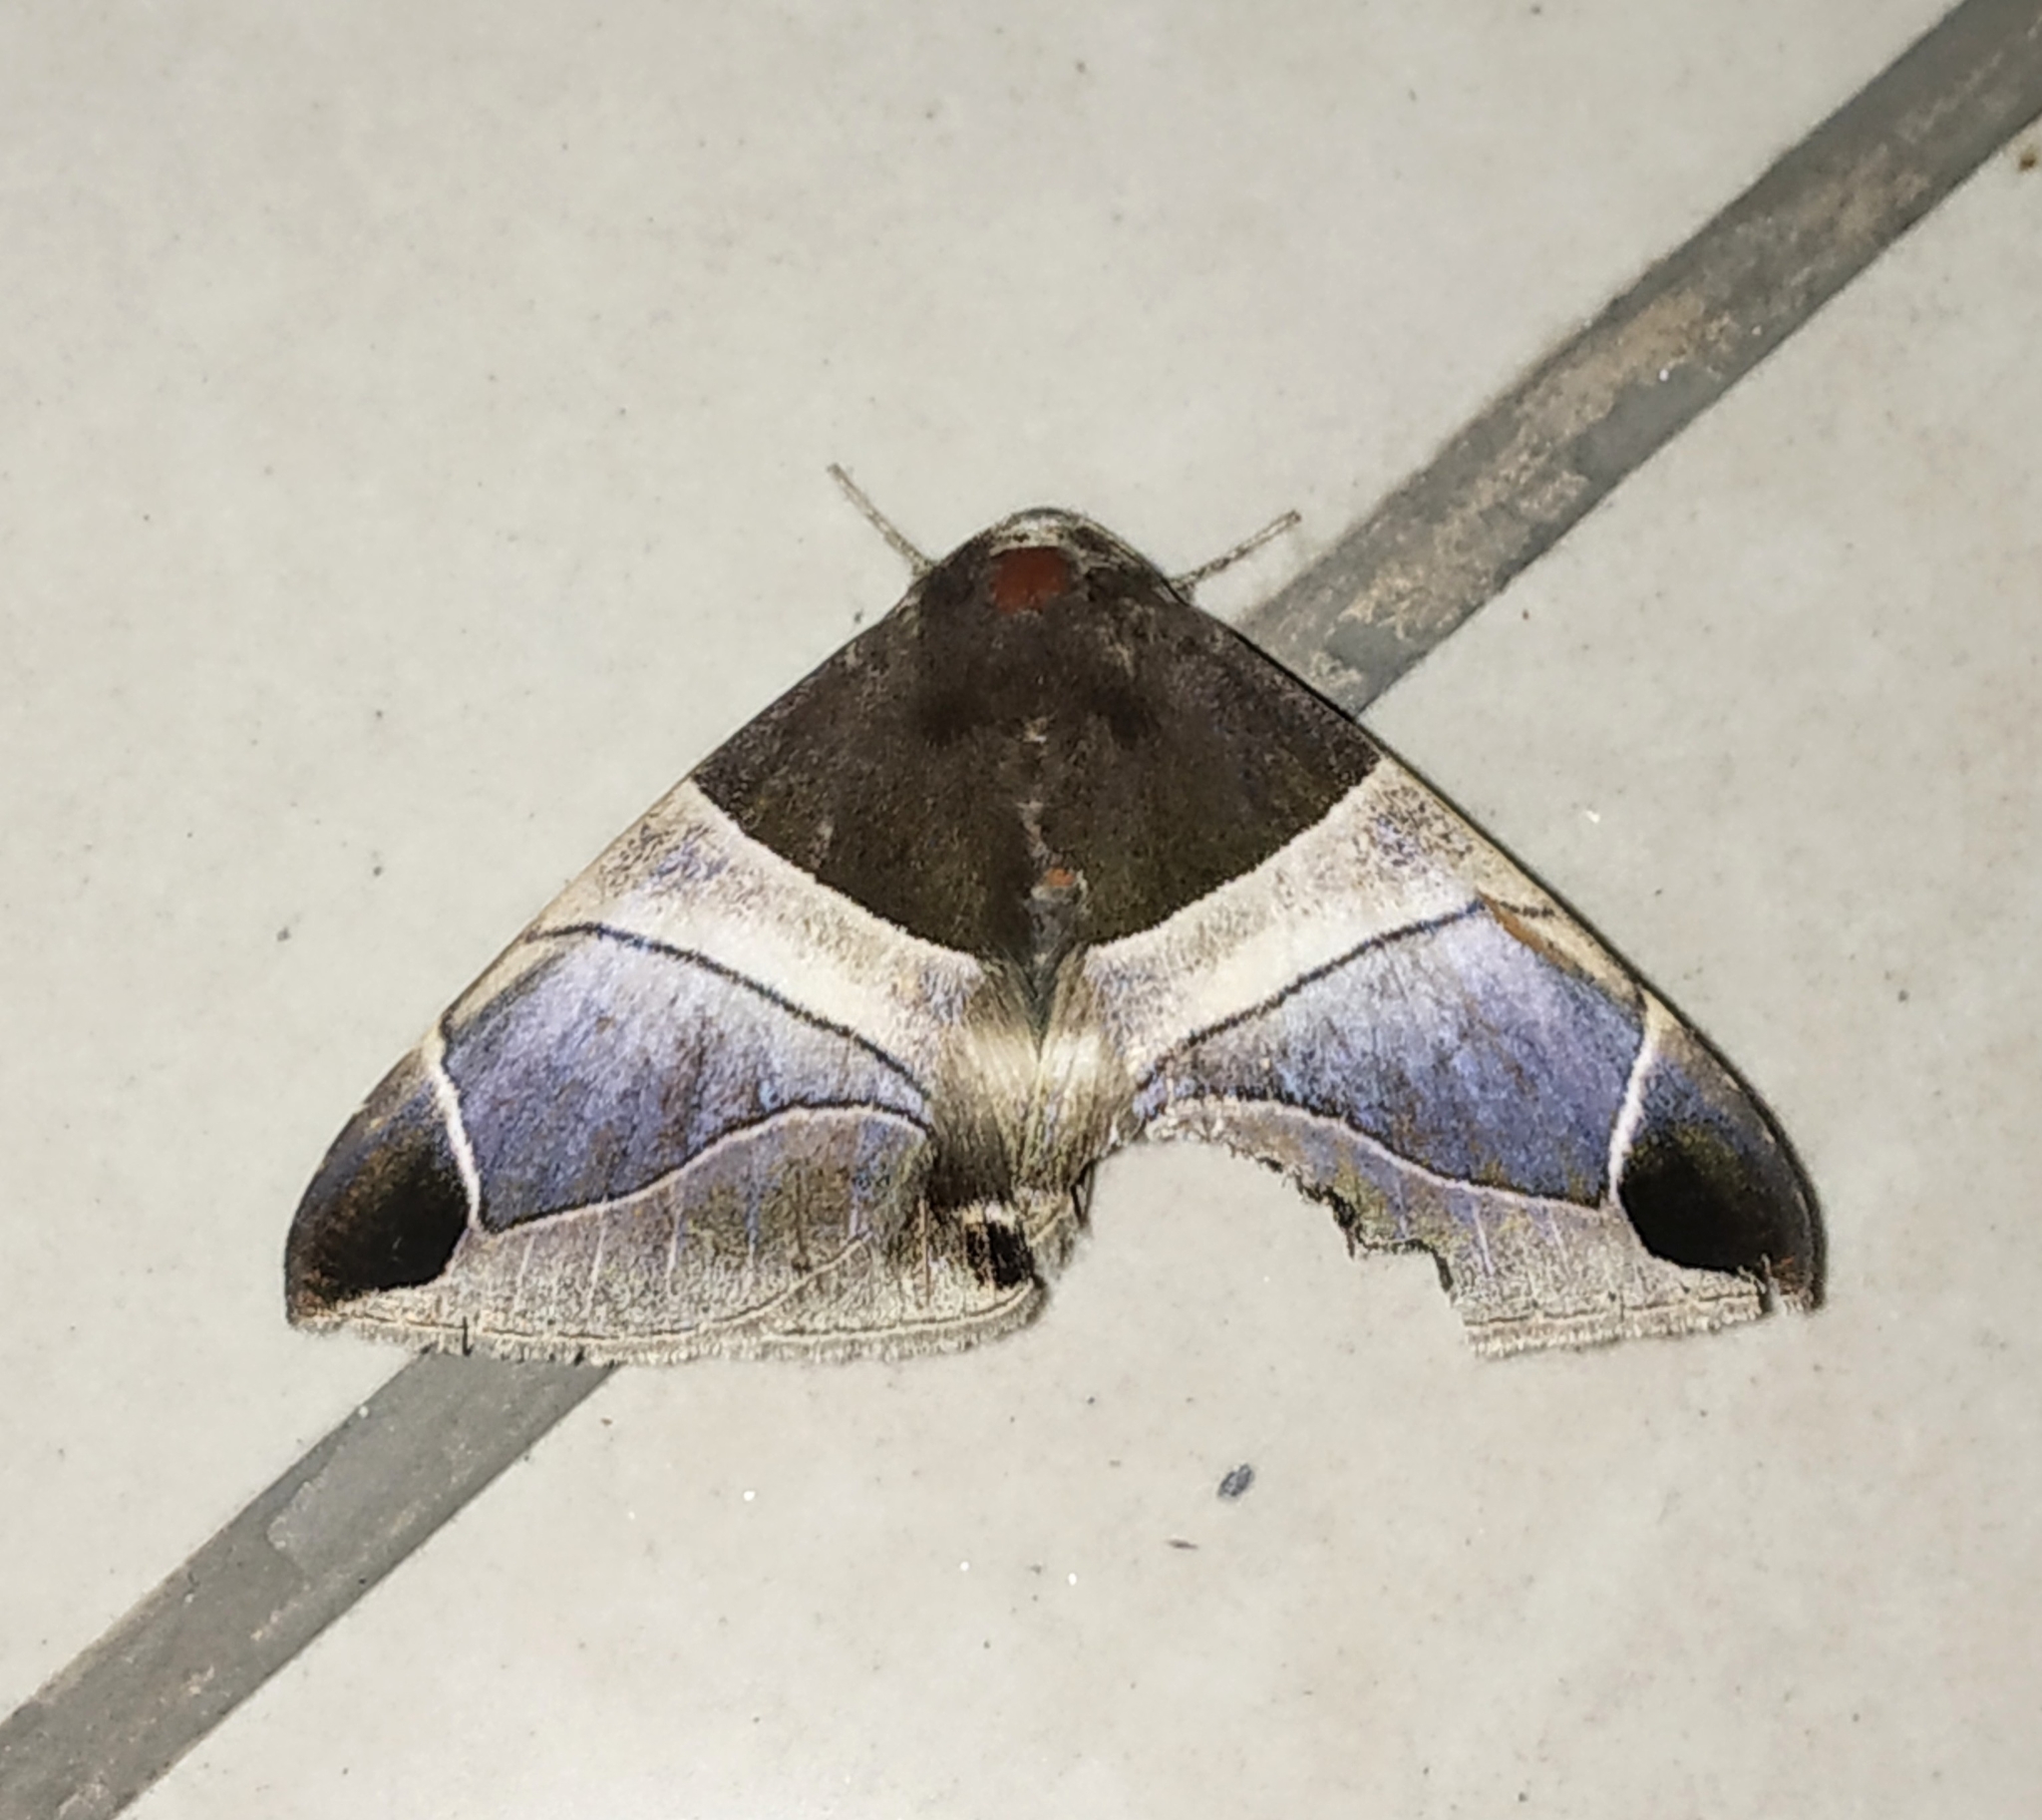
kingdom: Animalia
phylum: Arthropoda
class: Insecta
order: Lepidoptera
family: Erebidae
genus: Bastilla
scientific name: Bastilla crameri
